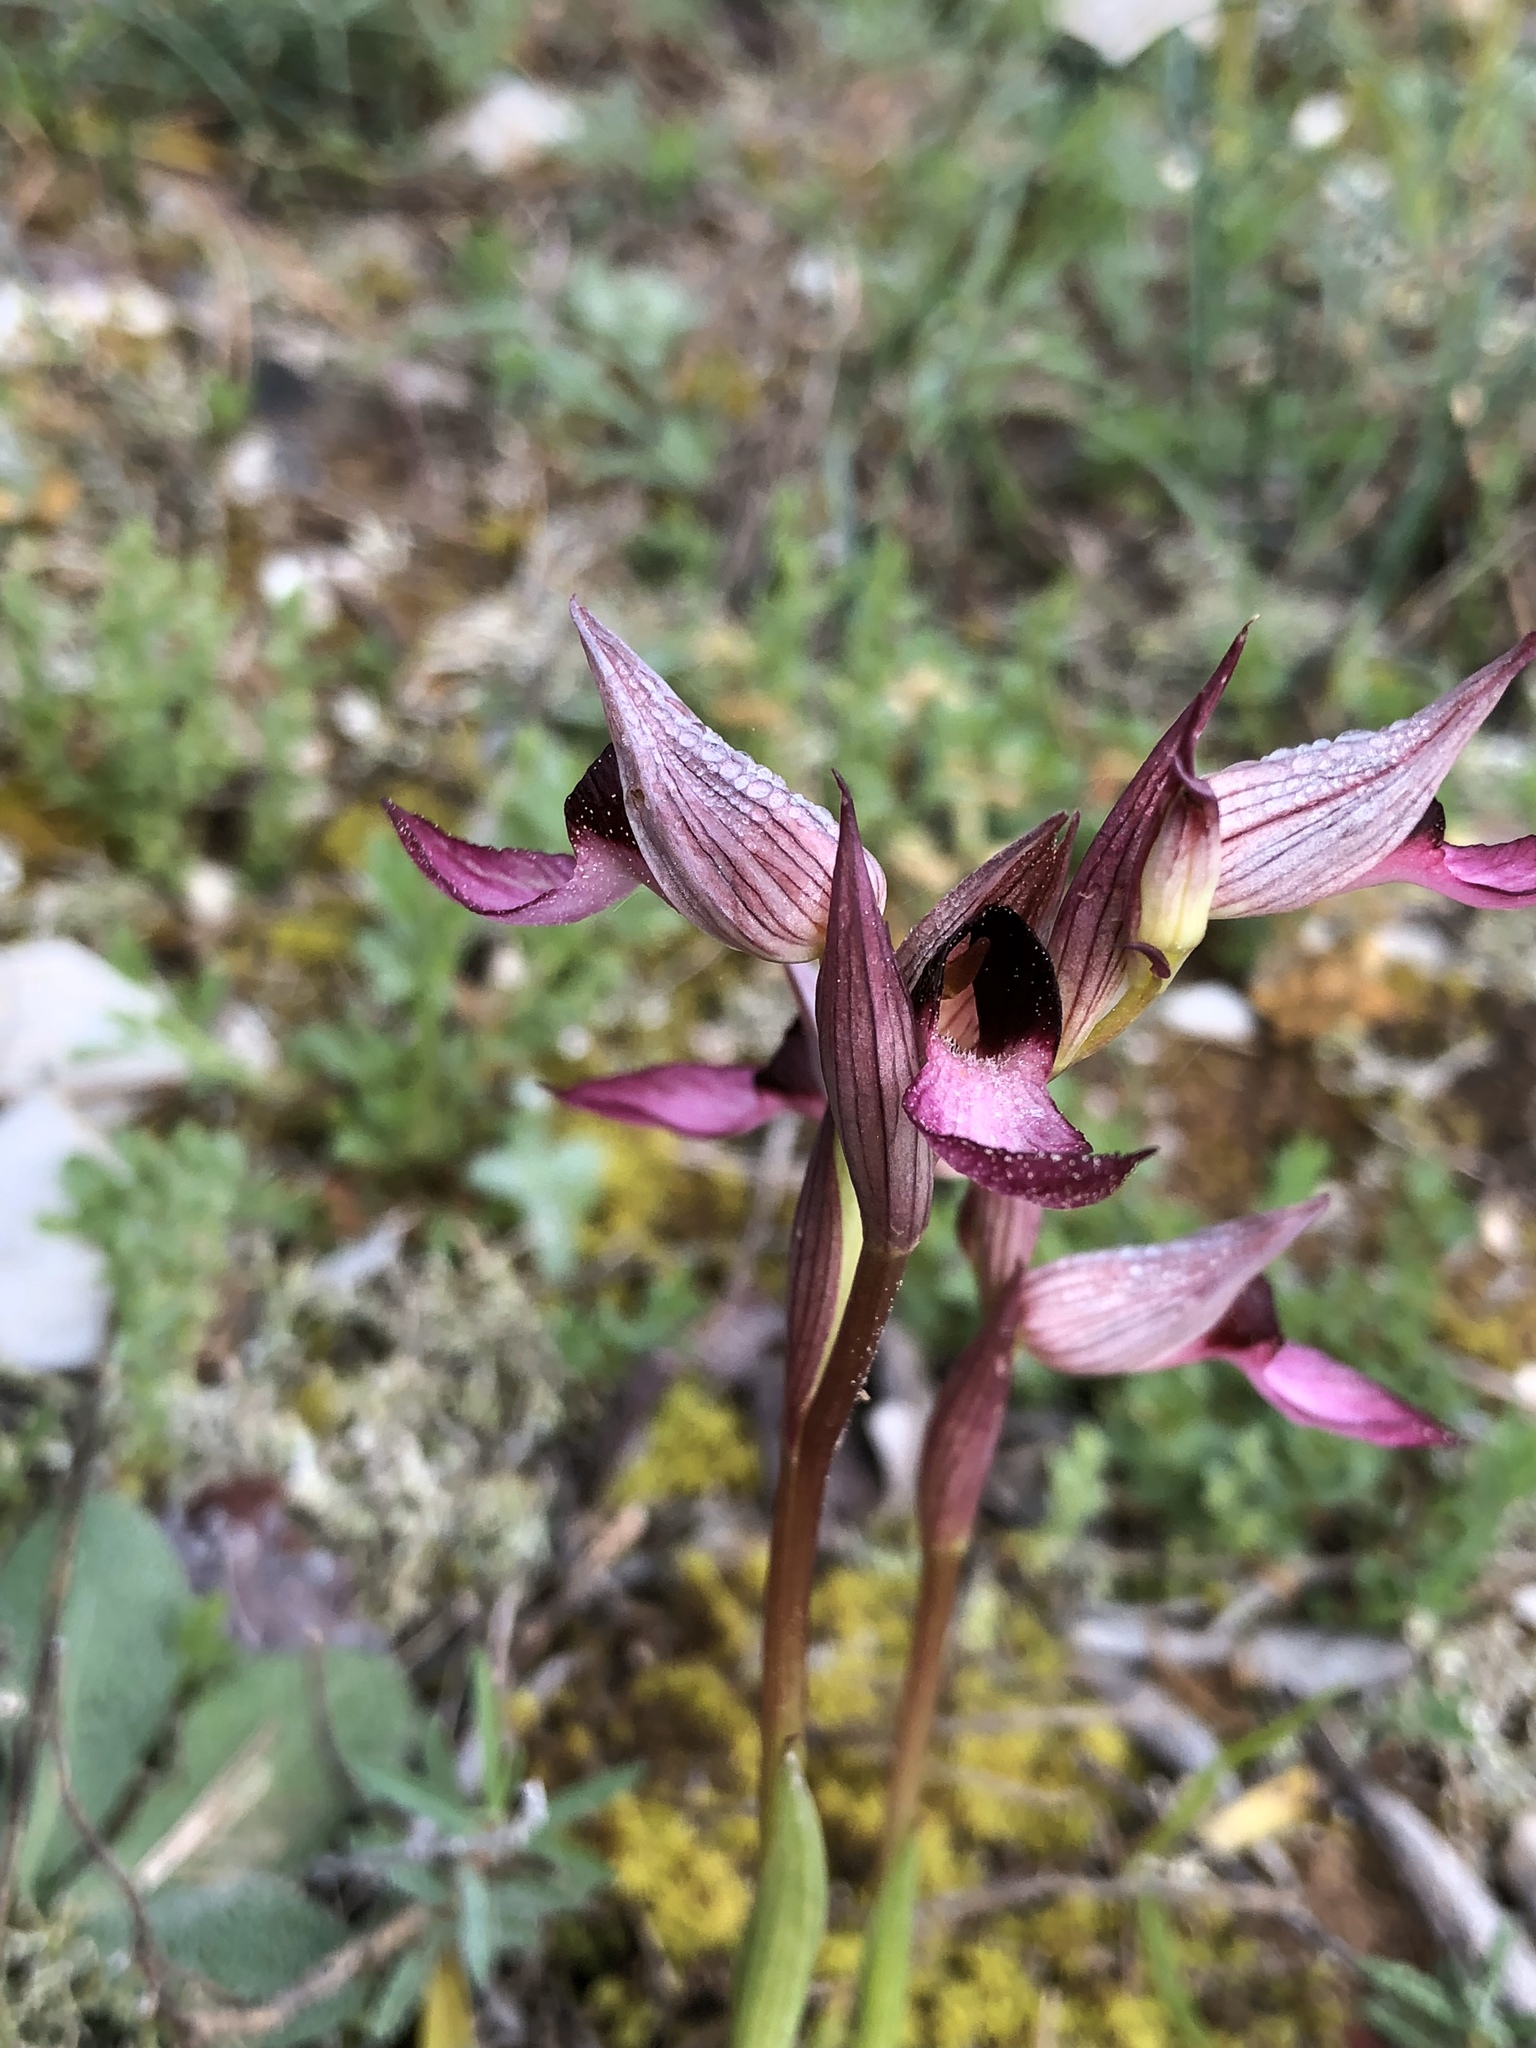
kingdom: Plantae
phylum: Tracheophyta
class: Liliopsida
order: Asparagales
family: Orchidaceae
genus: Serapias
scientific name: Serapias lingua
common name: Tongue-orchid
